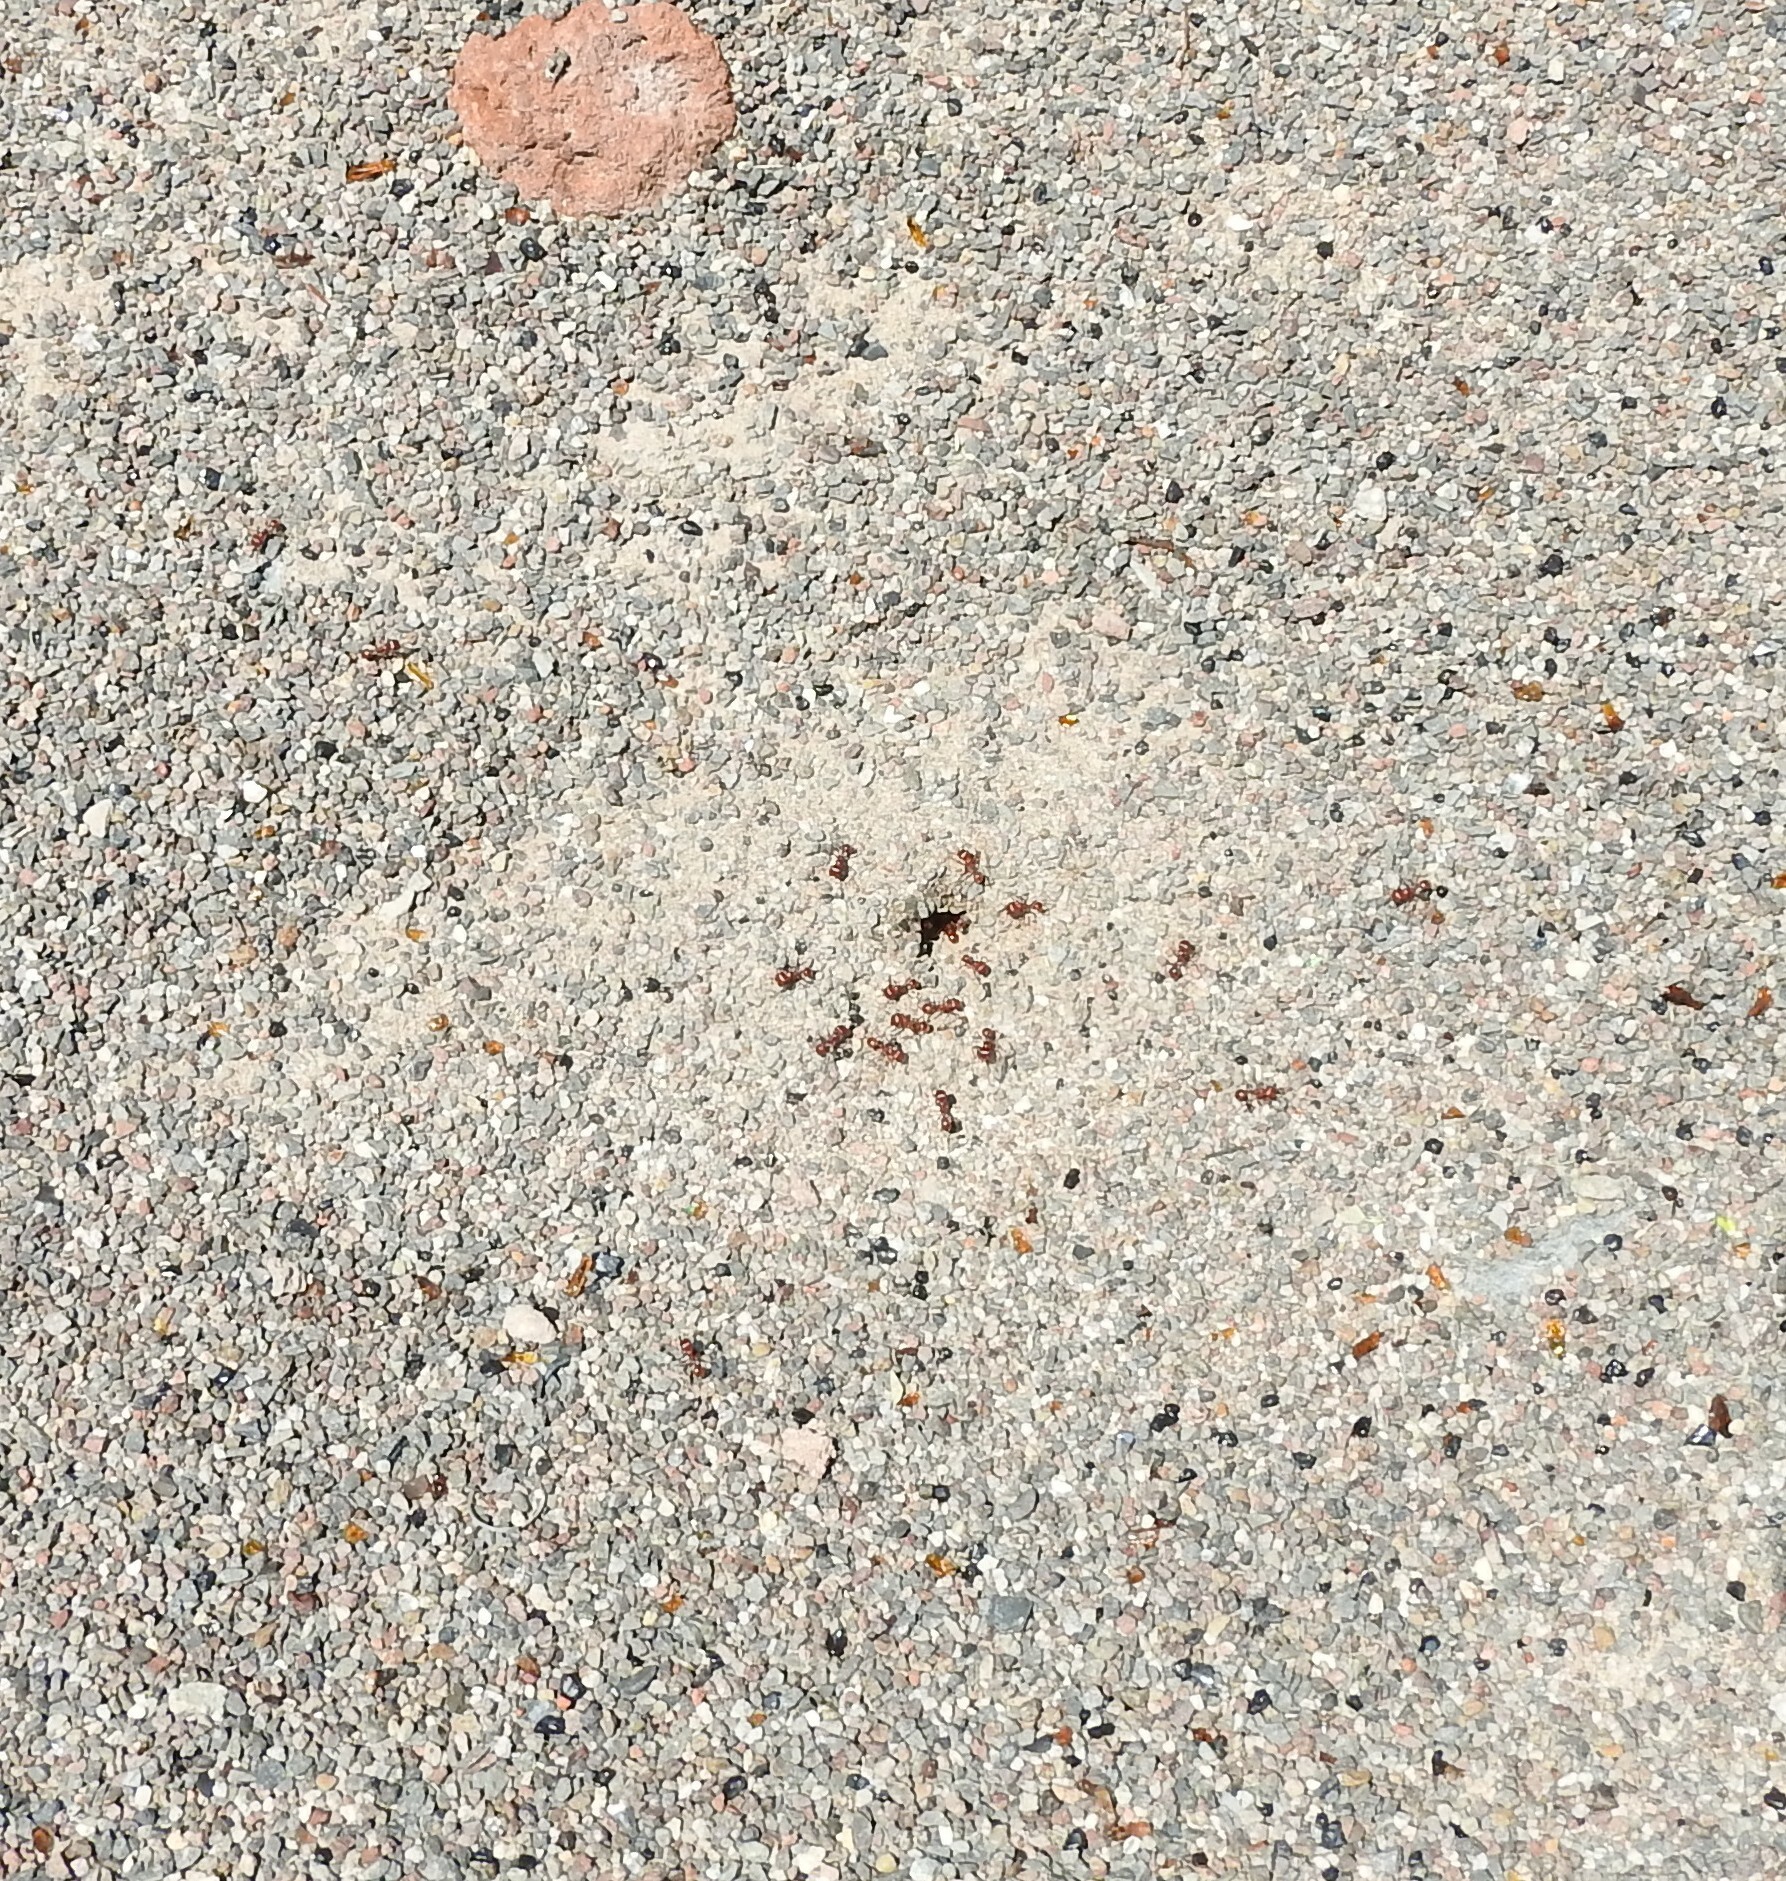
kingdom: Animalia
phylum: Arthropoda
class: Insecta
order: Hymenoptera
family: Formicidae
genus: Pogonomyrmex
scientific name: Pogonomyrmex barbatus
